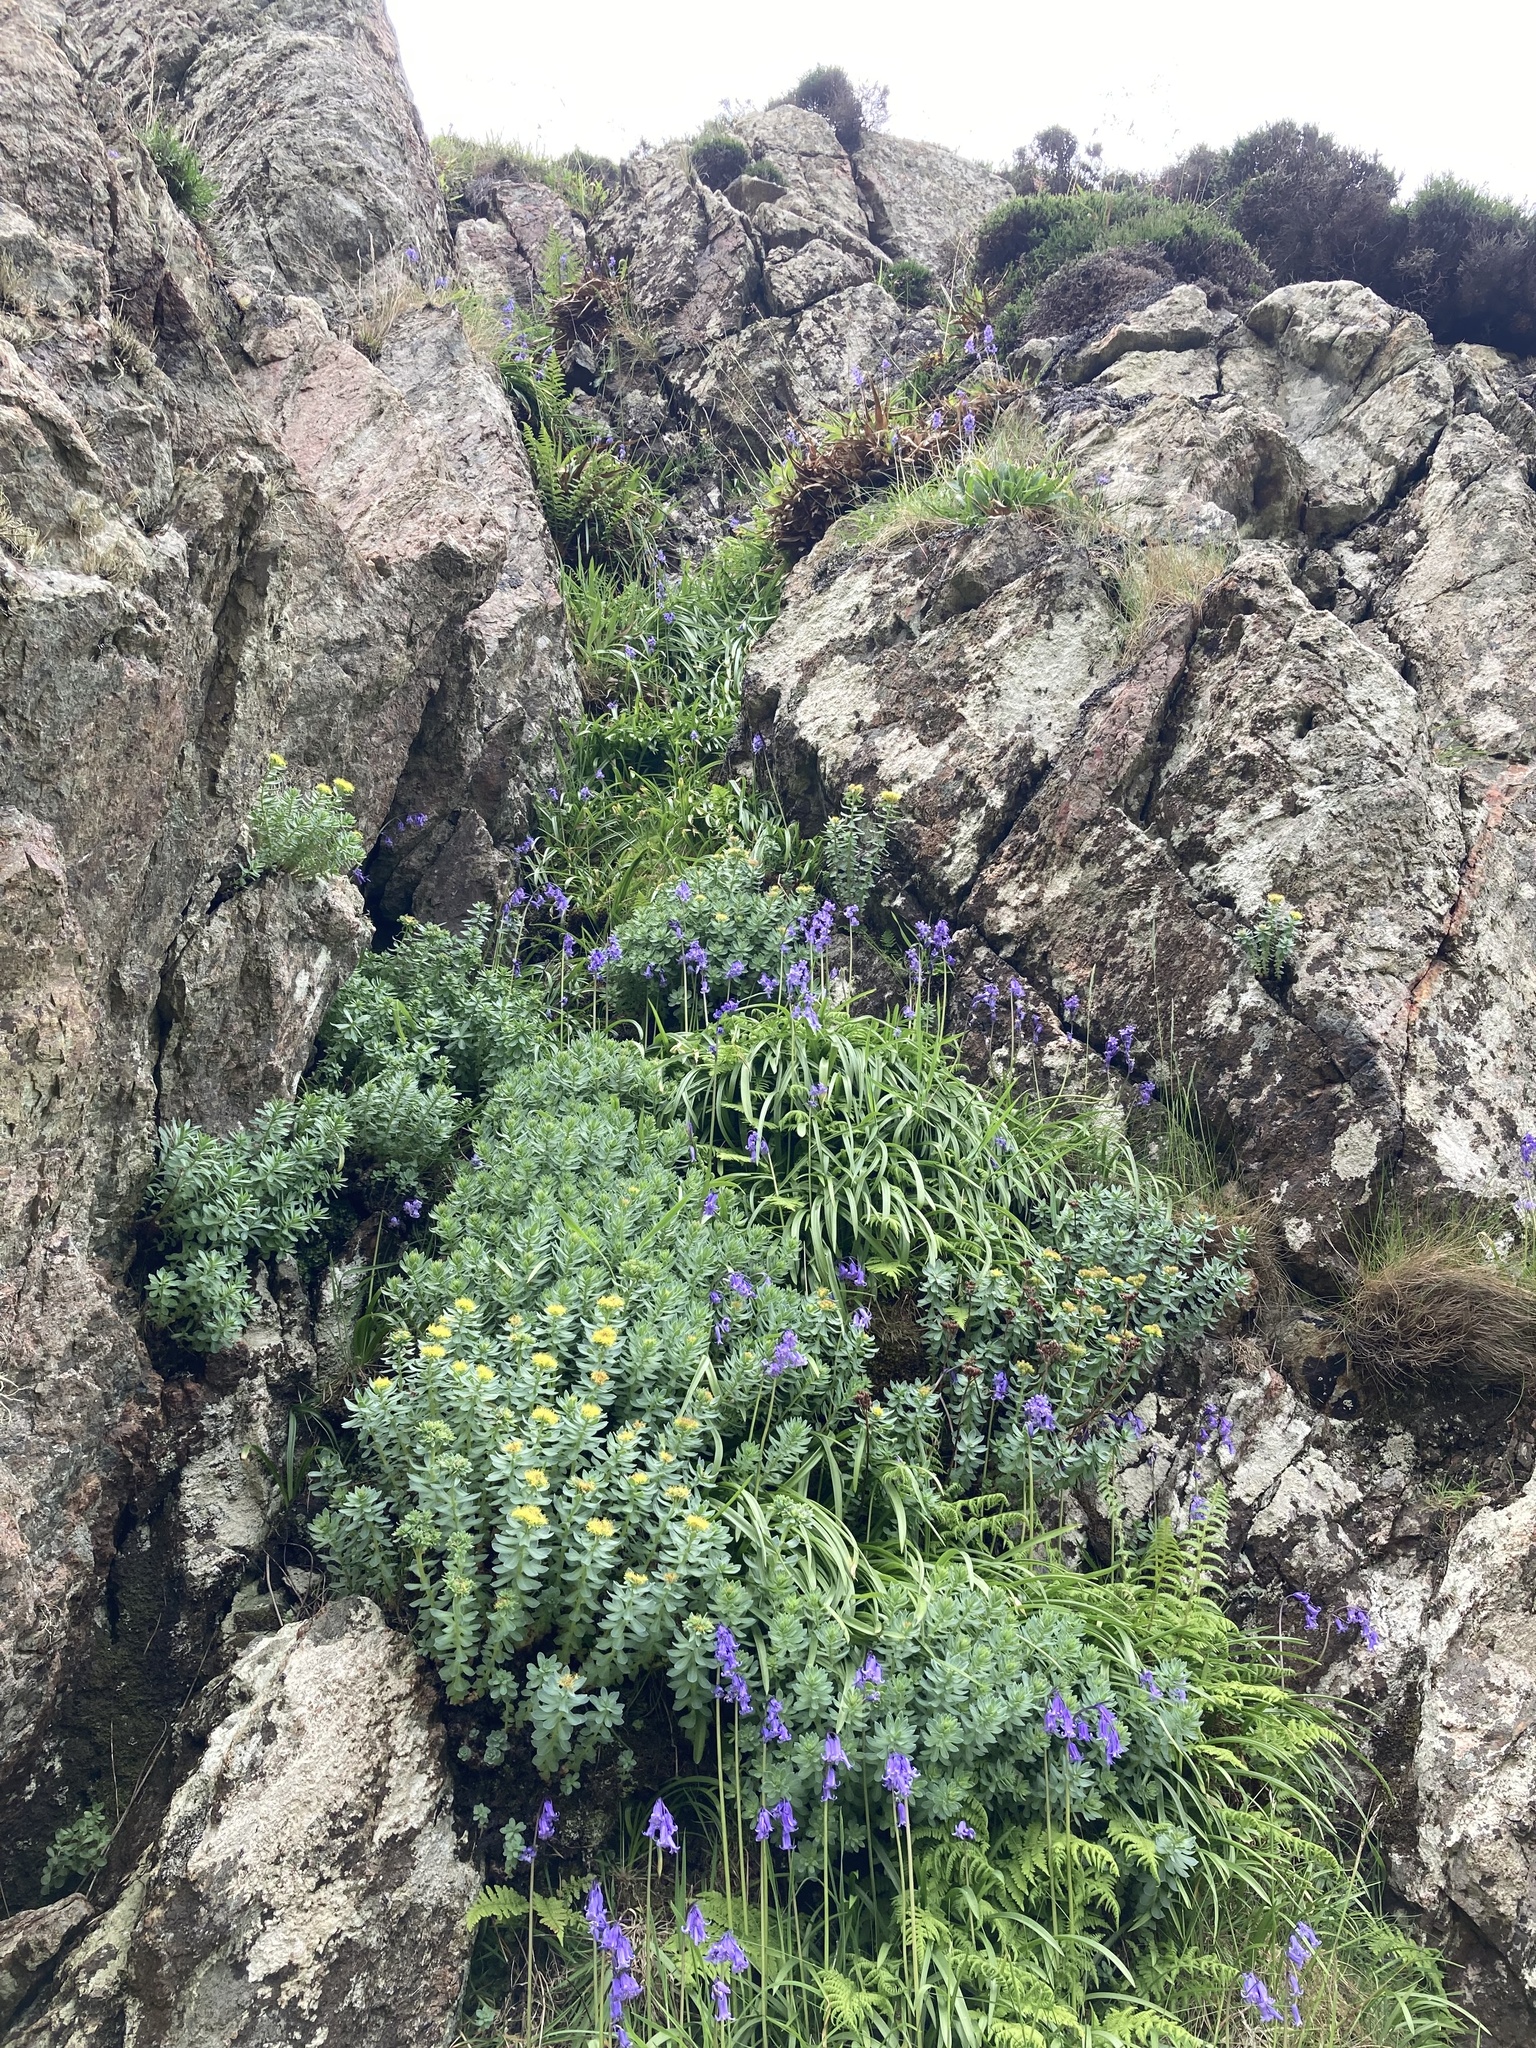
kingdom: Plantae
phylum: Tracheophyta
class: Magnoliopsida
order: Saxifragales
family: Crassulaceae
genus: Rhodiola
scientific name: Rhodiola rosea
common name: Roseroot
